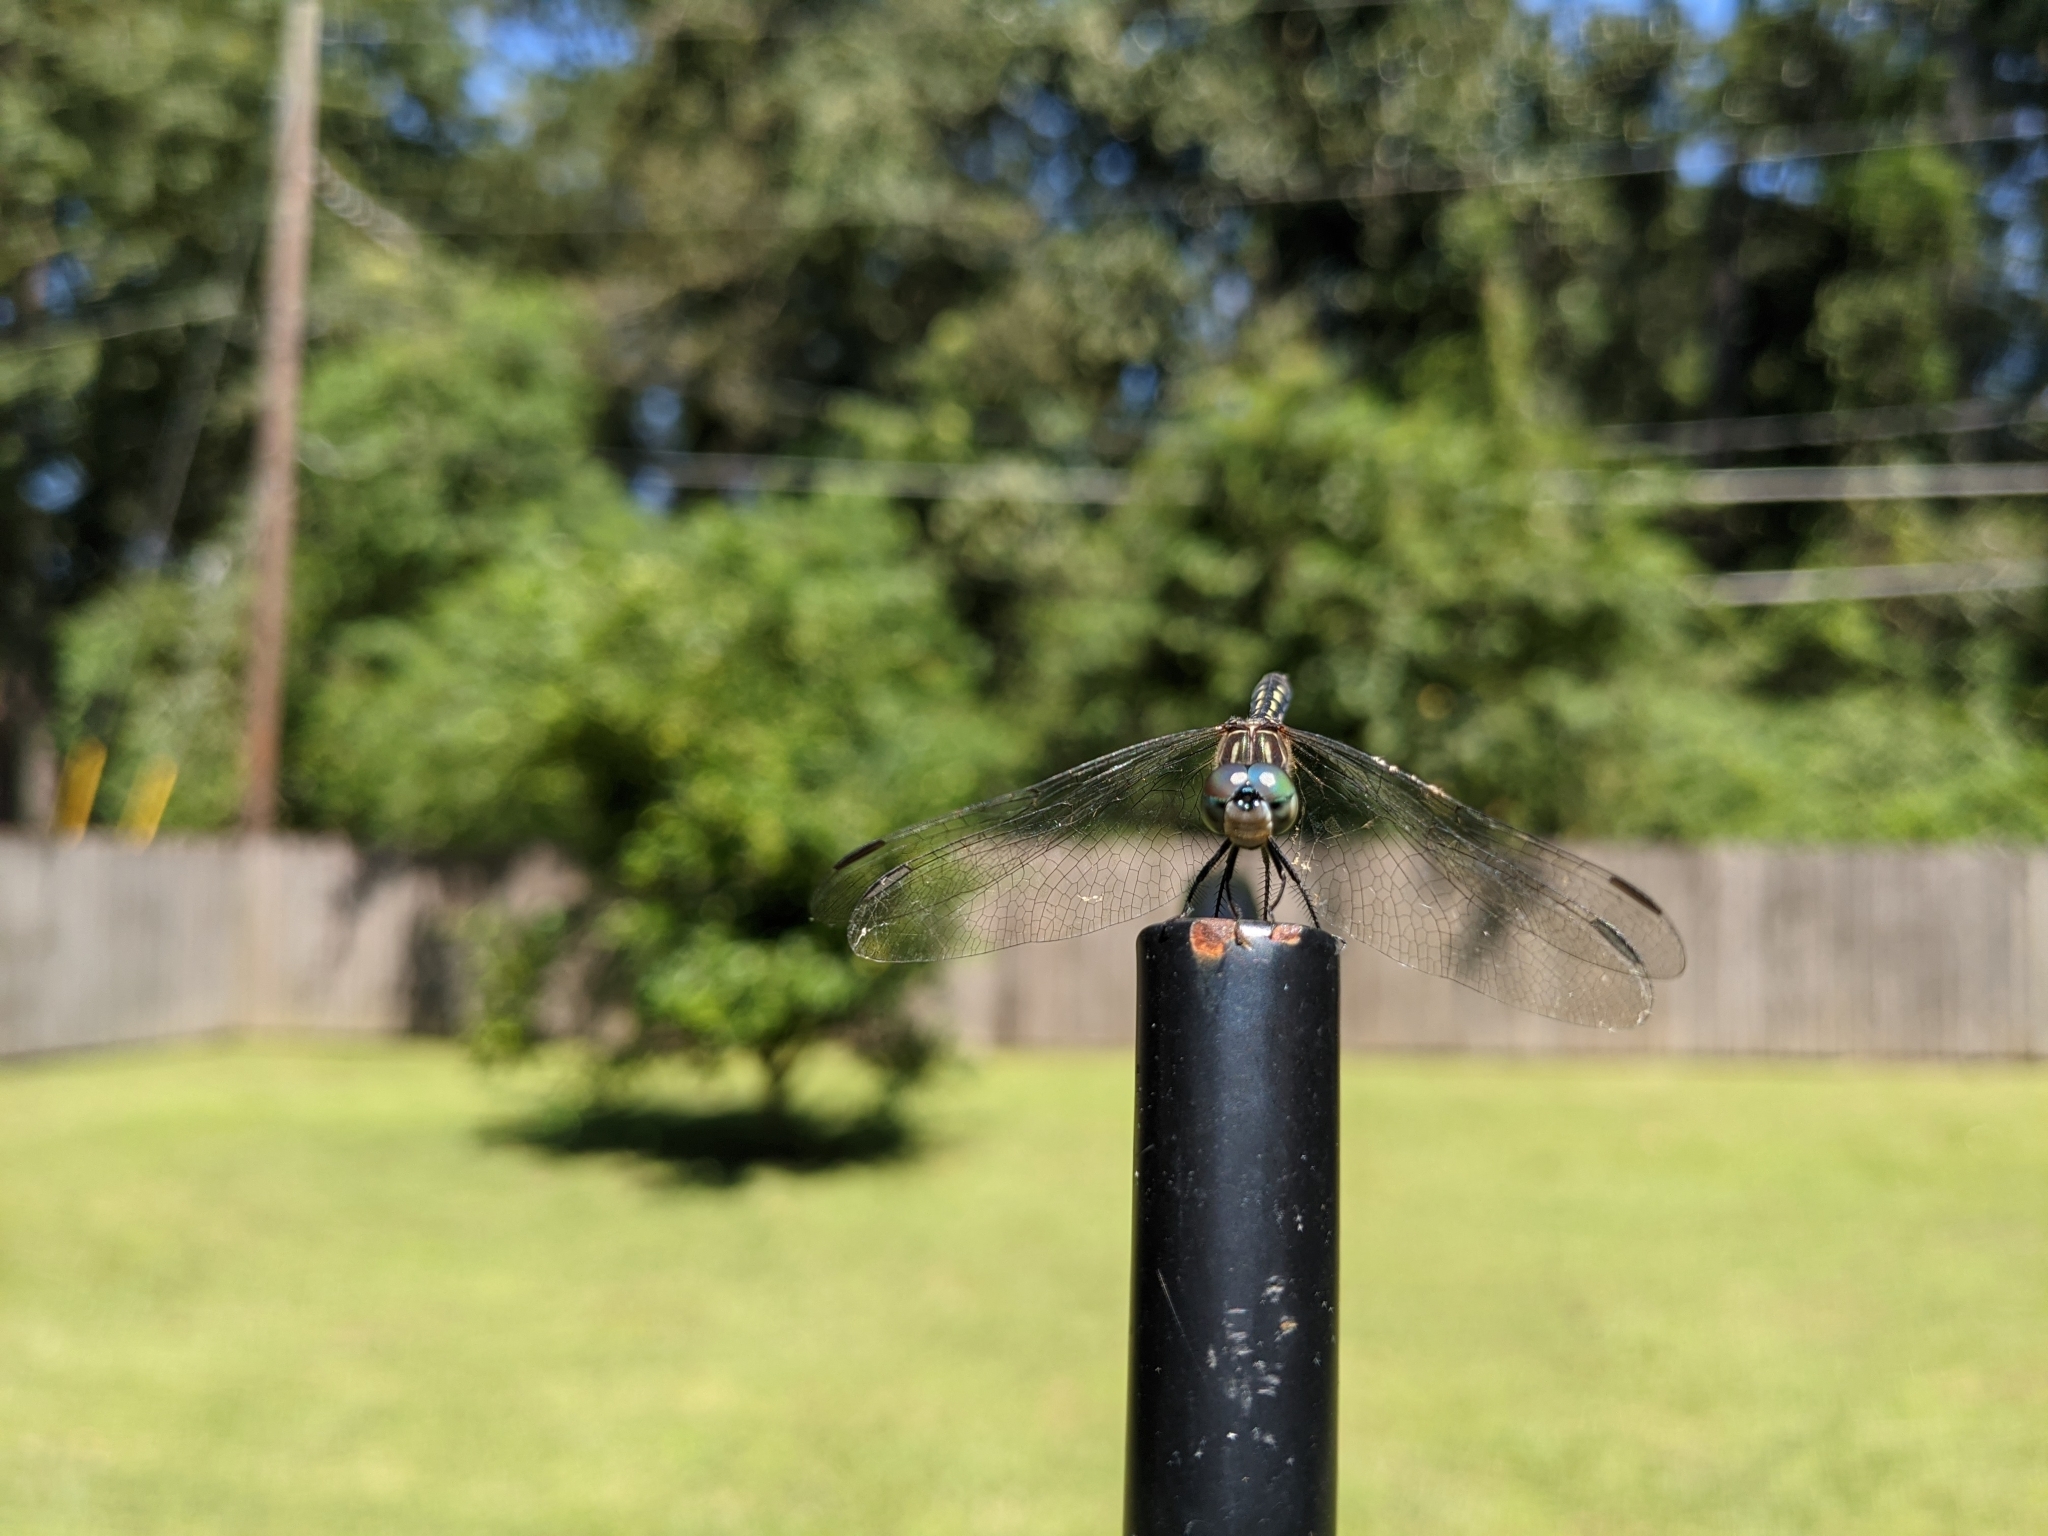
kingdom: Animalia
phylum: Arthropoda
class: Insecta
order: Odonata
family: Libellulidae
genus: Pachydiplax
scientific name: Pachydiplax longipennis
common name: Blue dasher
